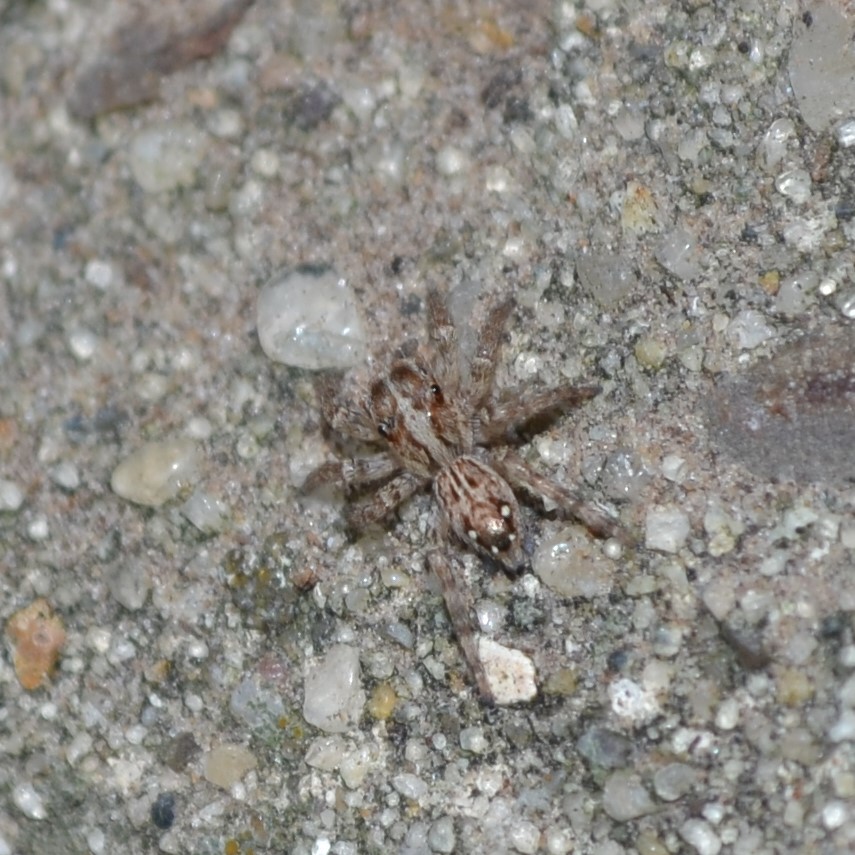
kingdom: Animalia
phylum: Arthropoda
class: Arachnida
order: Araneae
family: Salticidae
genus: Plexippus
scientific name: Plexippus paykulli
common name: Pantropical jumper
